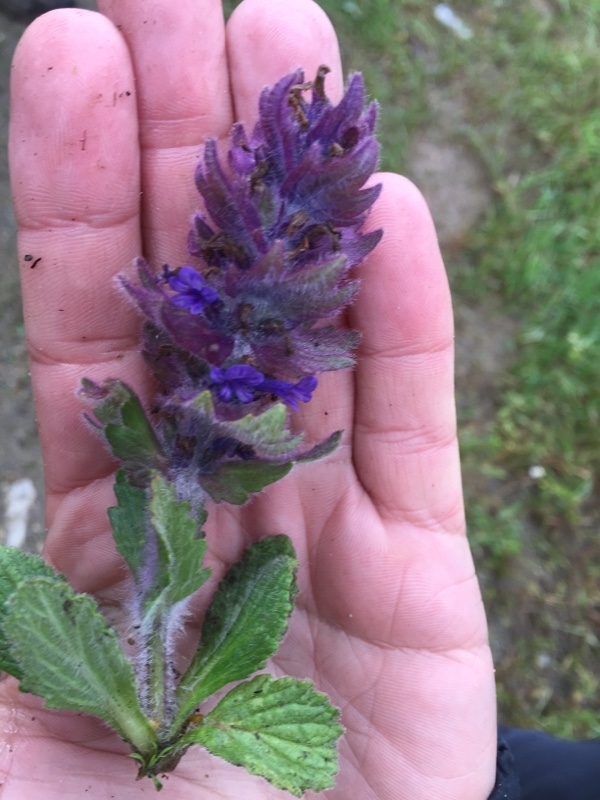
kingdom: Plantae
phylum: Tracheophyta
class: Magnoliopsida
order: Lamiales
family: Lamiaceae
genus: Ajuga
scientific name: Ajuga orientalis
